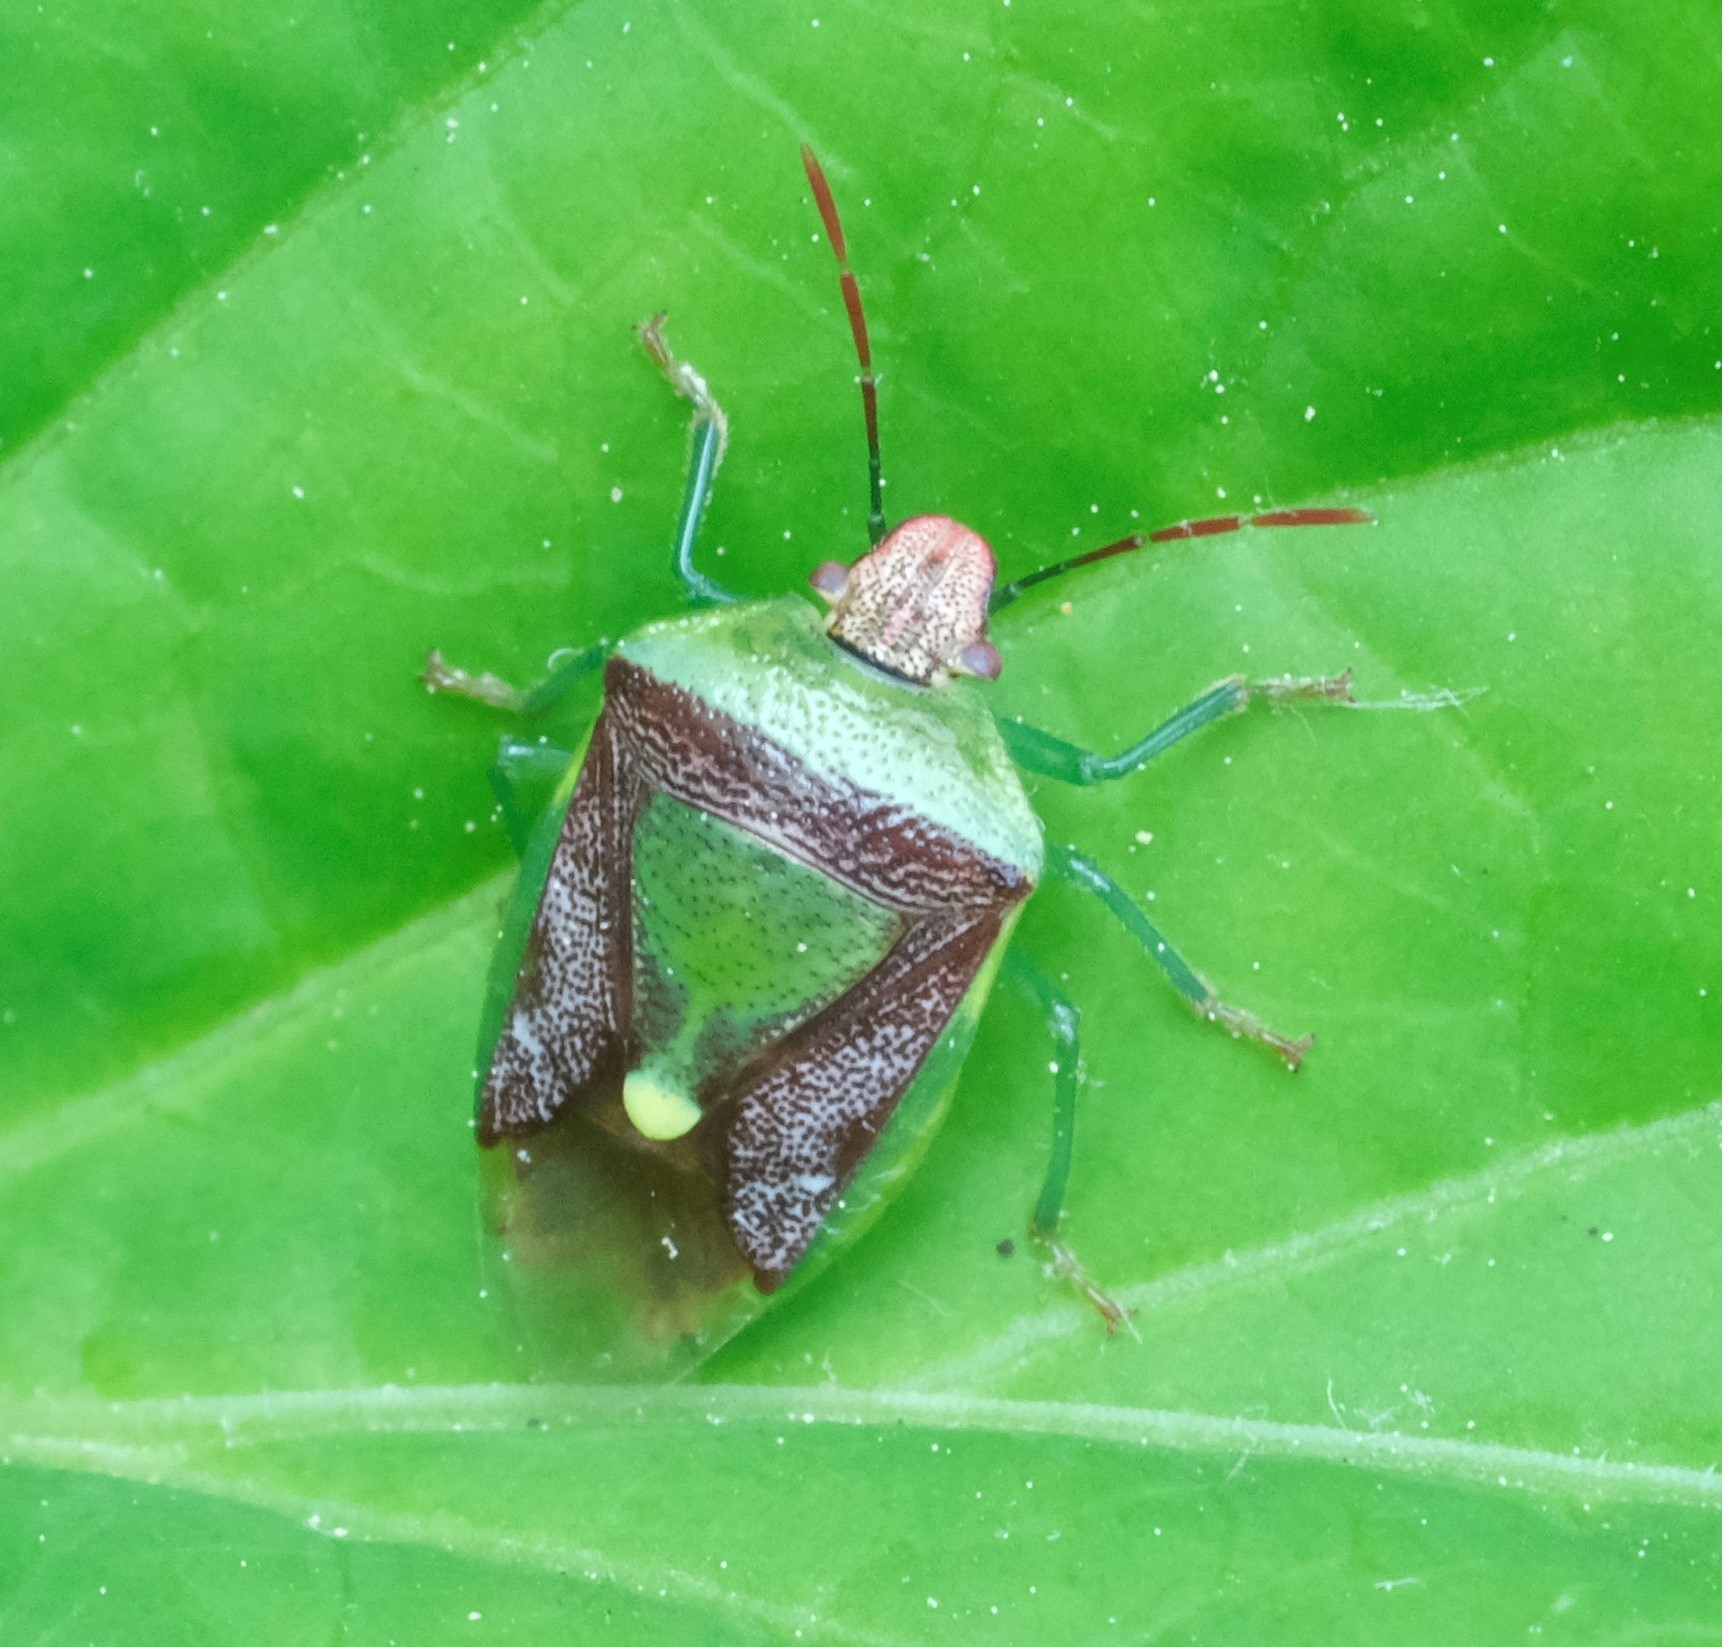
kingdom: Animalia
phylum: Arthropoda
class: Insecta
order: Hemiptera
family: Pentatomidae
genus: Banasa
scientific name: Banasa dimidiata
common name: Green burgundy stink bug
